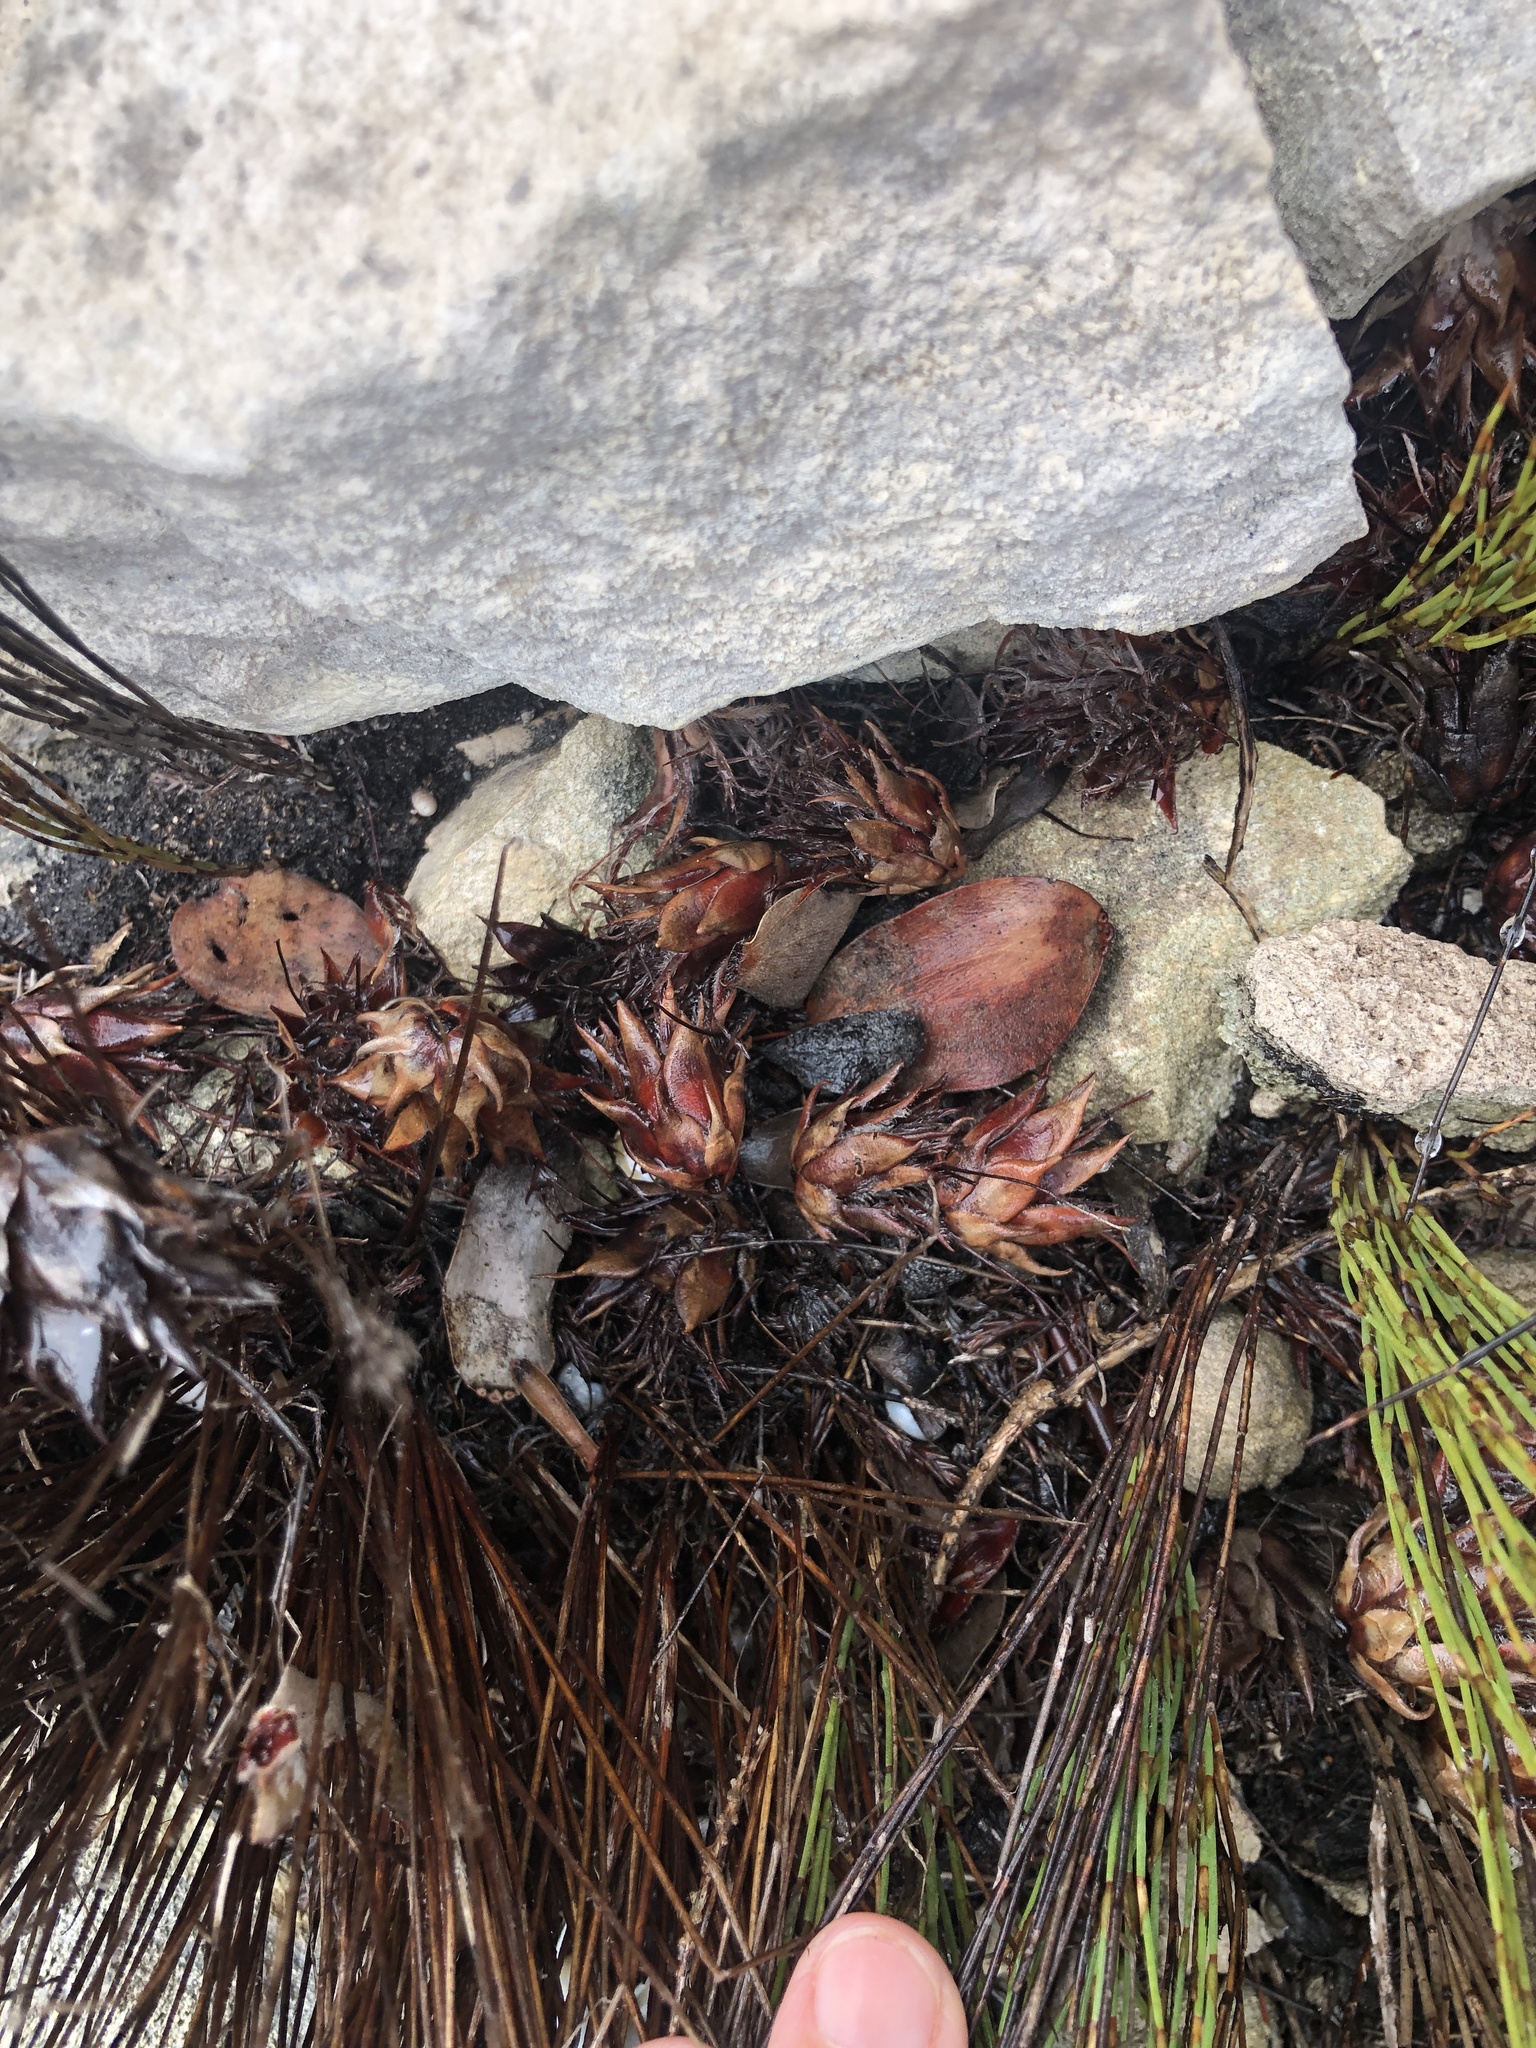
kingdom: Plantae
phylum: Tracheophyta
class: Magnoliopsida
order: Proteales
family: Proteaceae
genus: Mimetes
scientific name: Mimetes saxatilis
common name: Limestone pagoda
